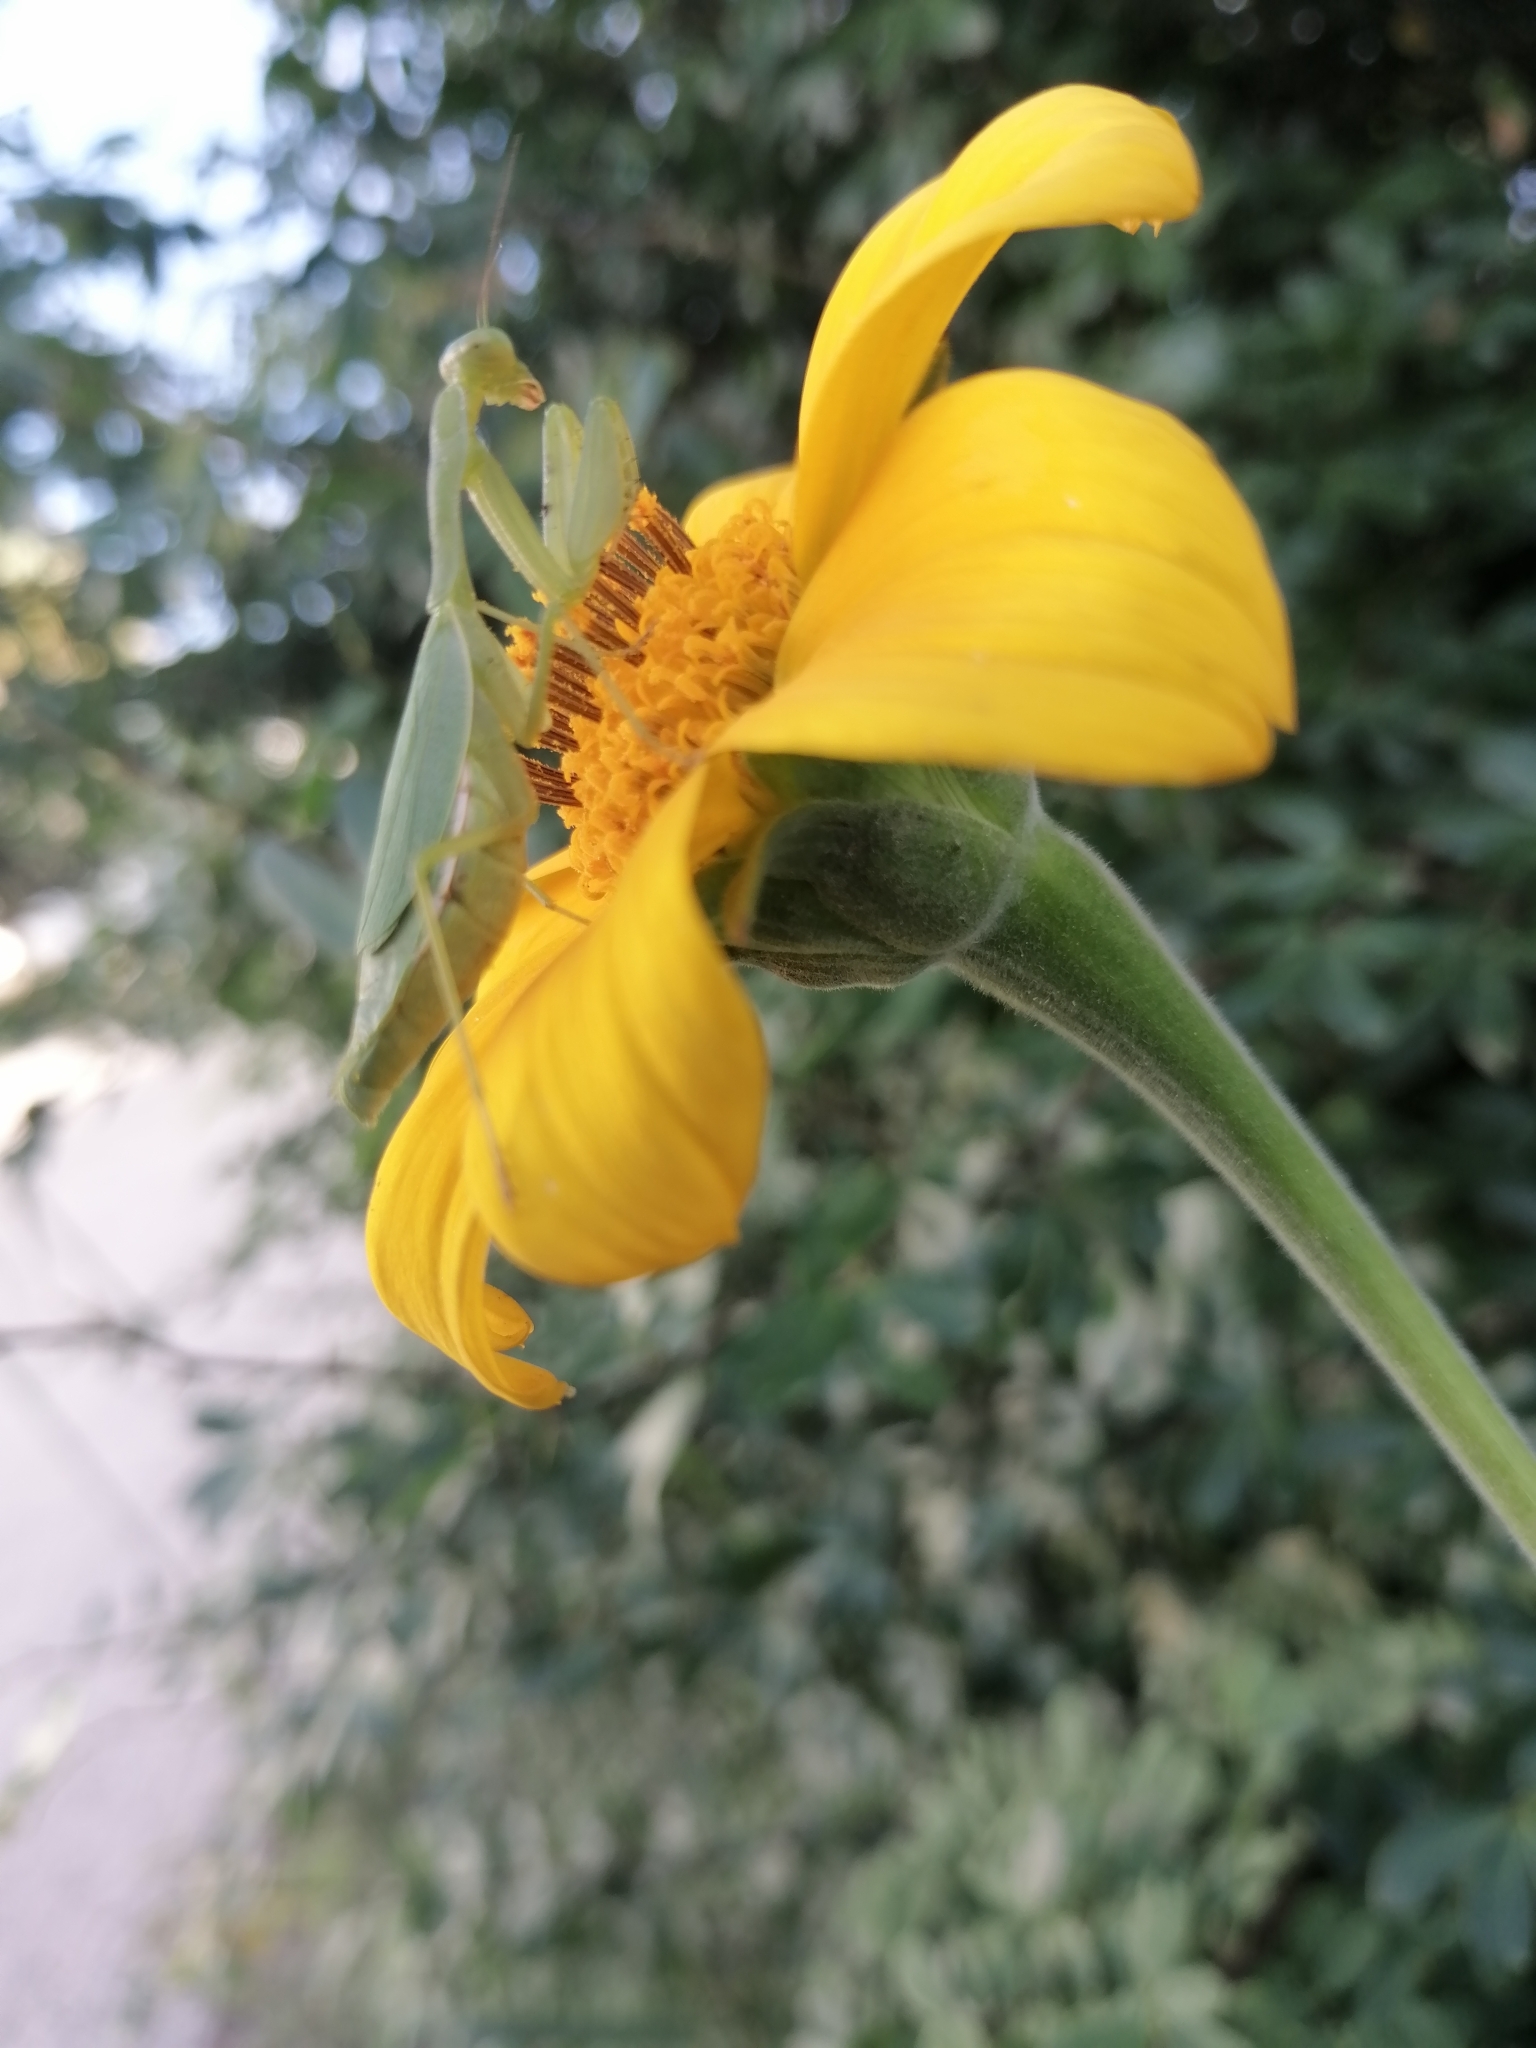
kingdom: Animalia
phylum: Arthropoda
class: Insecta
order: Mantodea
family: Mantidae
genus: Stagmomantis
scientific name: Stagmomantis fraterna
